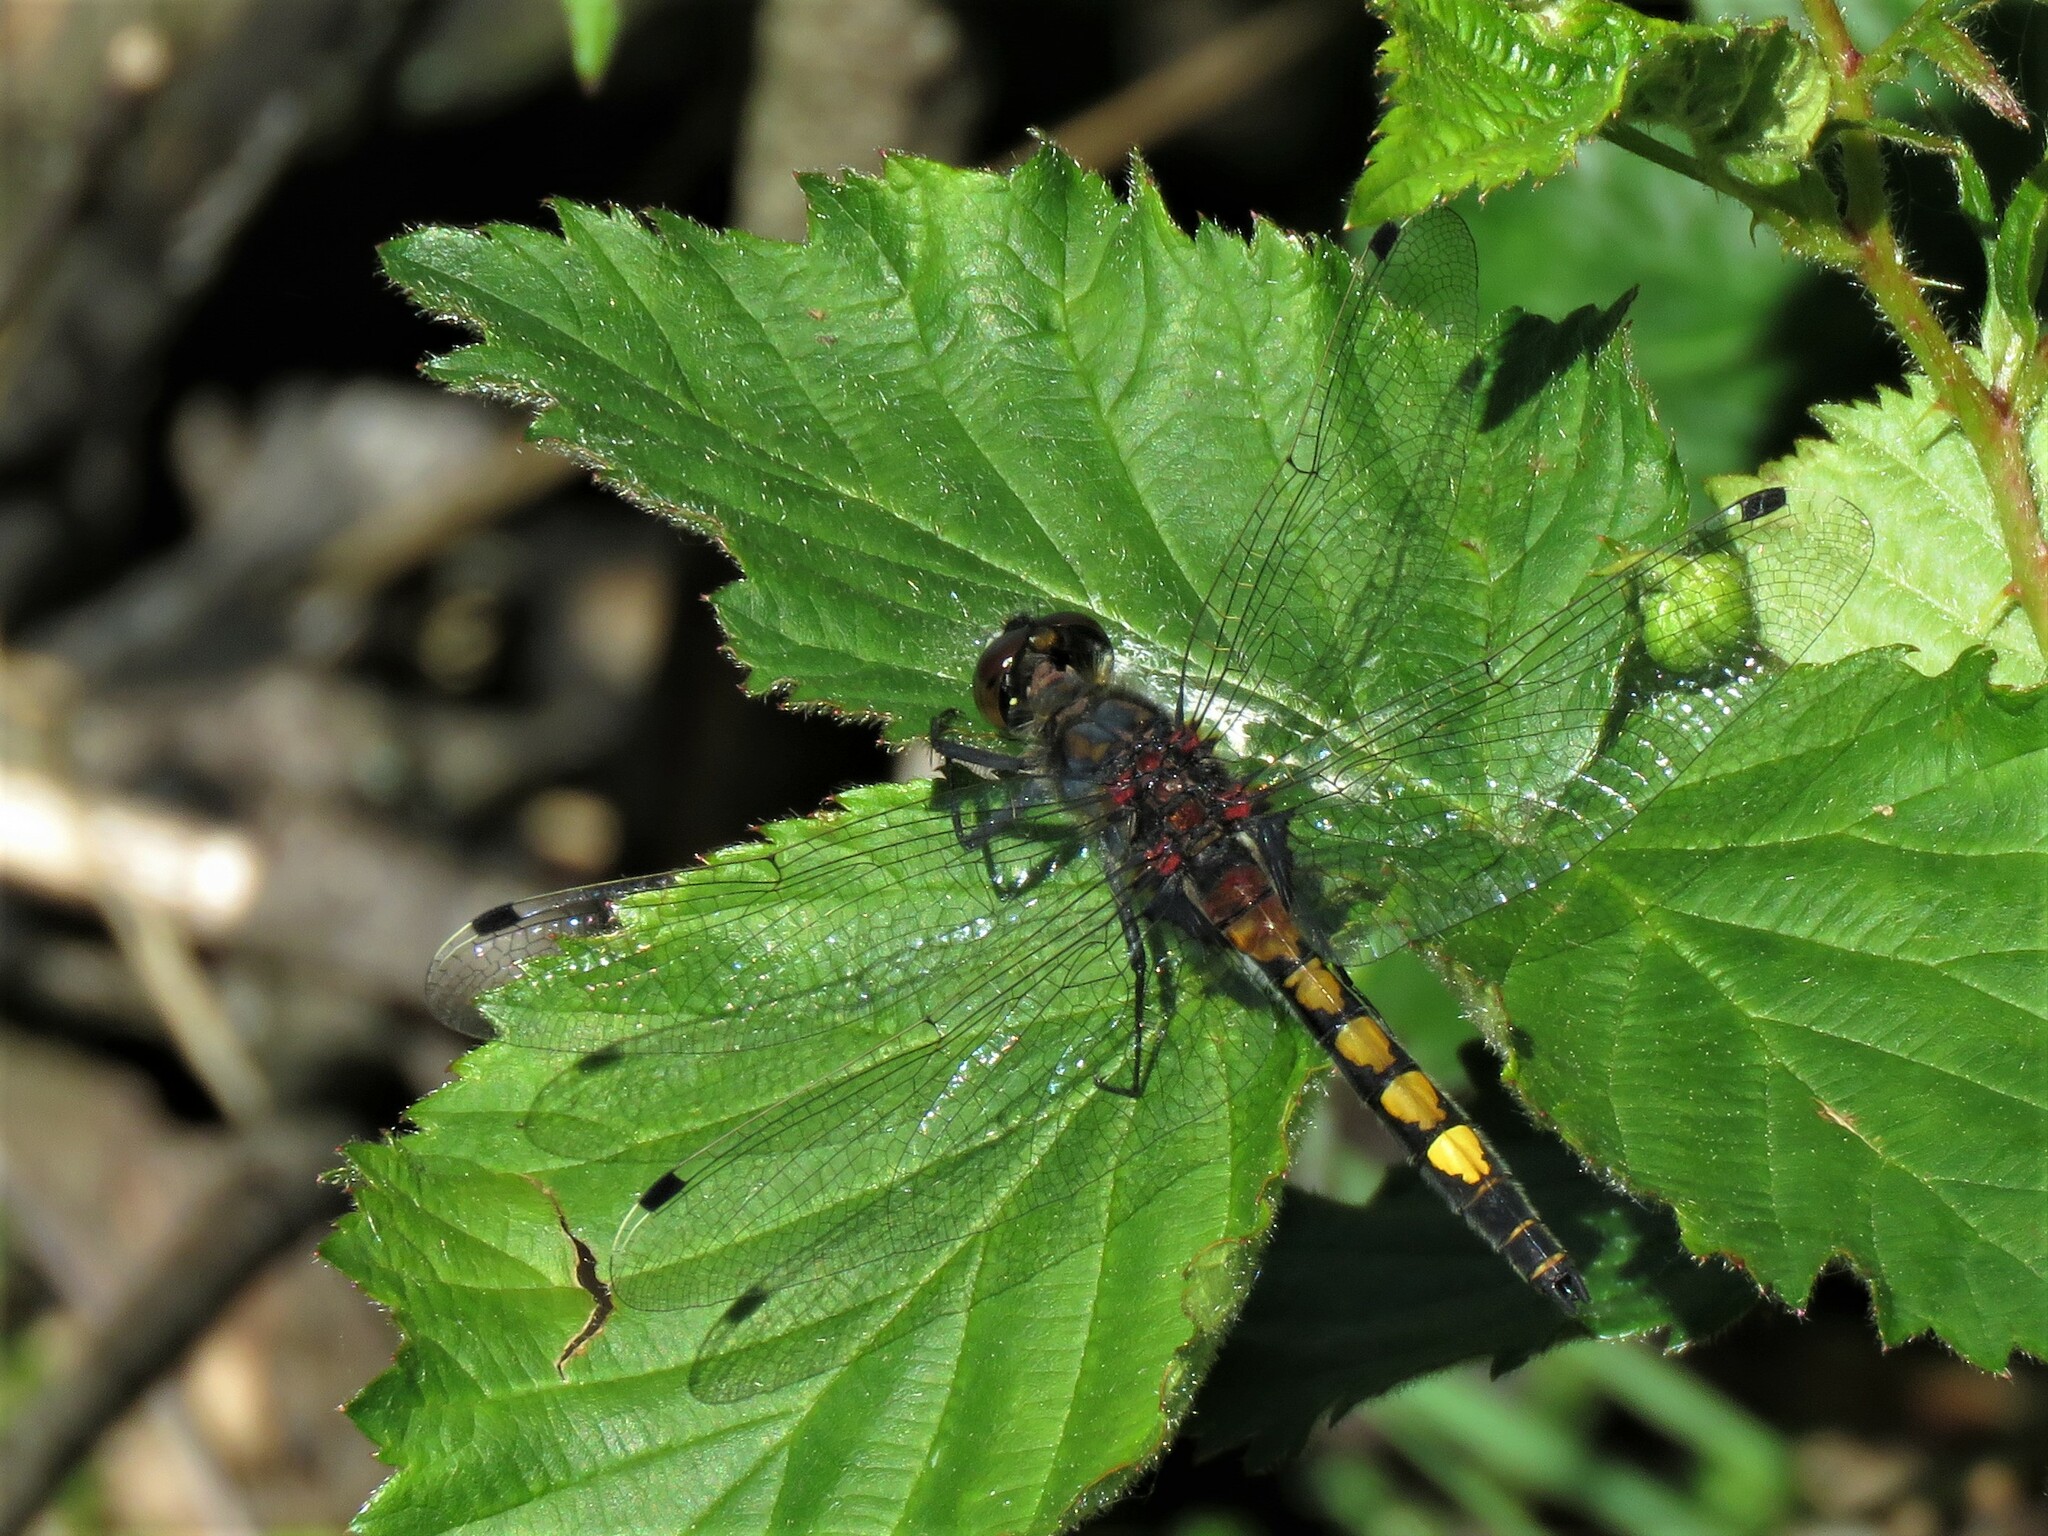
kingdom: Animalia
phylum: Arthropoda
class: Insecta
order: Odonata
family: Libellulidae
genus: Leucorrhinia
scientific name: Leucorrhinia pectoralis
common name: Yellow-spotted whiteface
